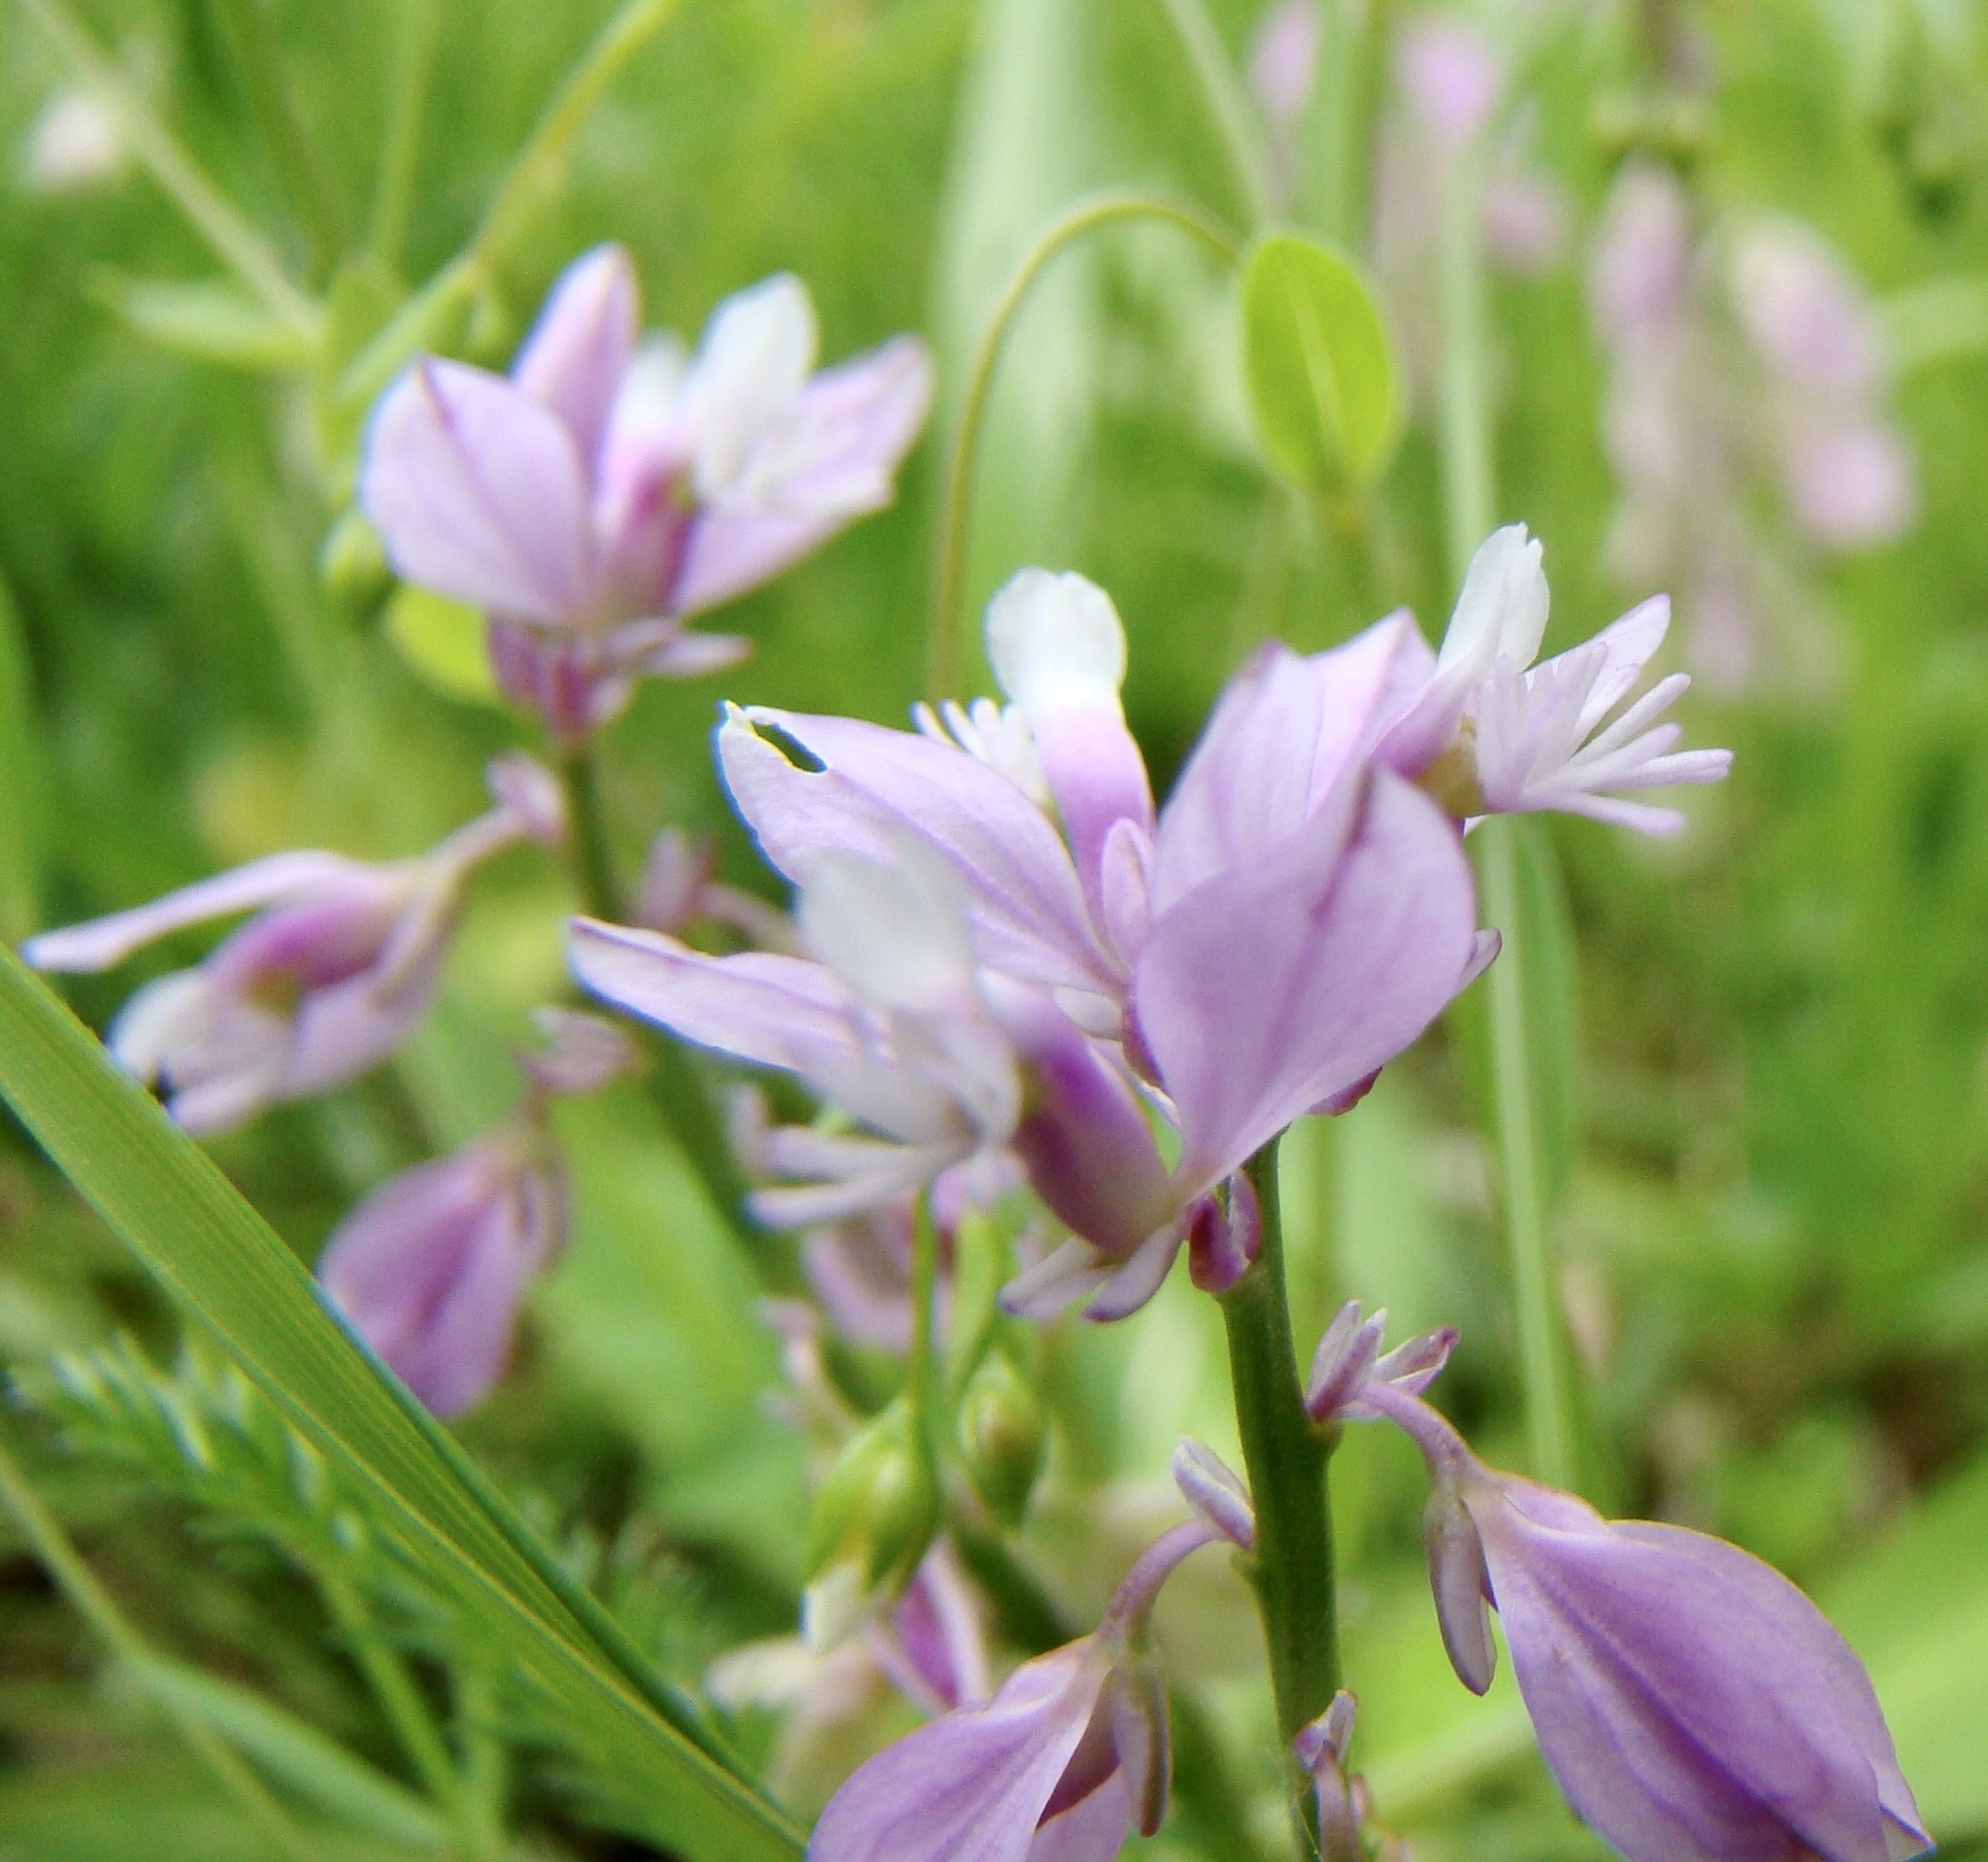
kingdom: Plantae
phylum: Tracheophyta
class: Magnoliopsida
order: Fabales
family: Polygalaceae
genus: Polygala
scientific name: Polygala vulgaris
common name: Common milkwort
